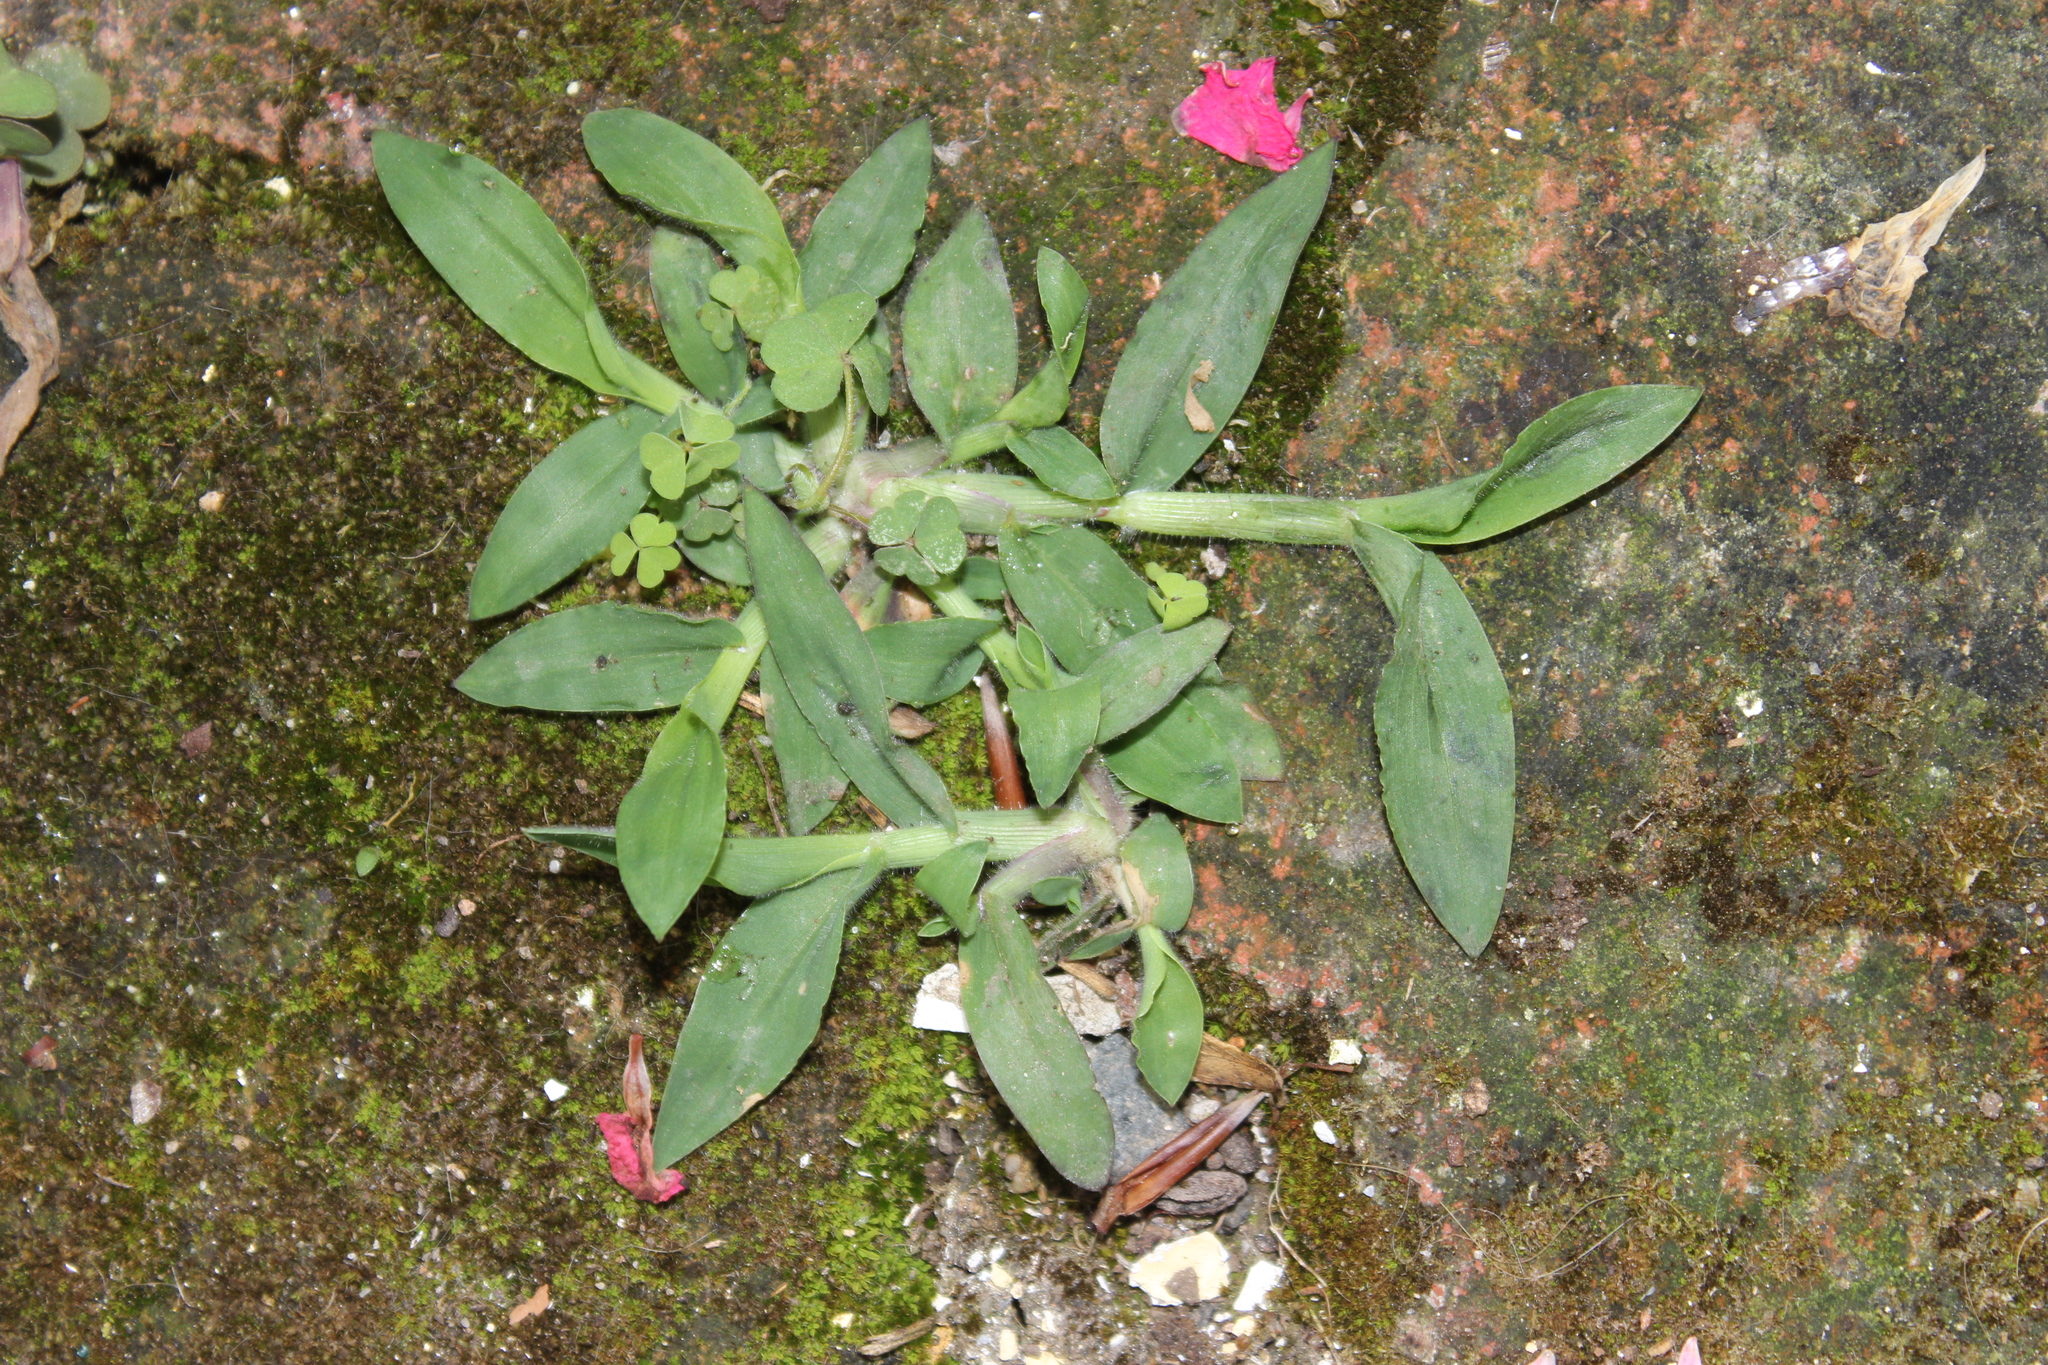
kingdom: Plantae
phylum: Tracheophyta
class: Liliopsida
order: Poales
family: Poaceae
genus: Digitaria
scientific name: Digitaria sanguinalis
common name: Hairy crabgrass
